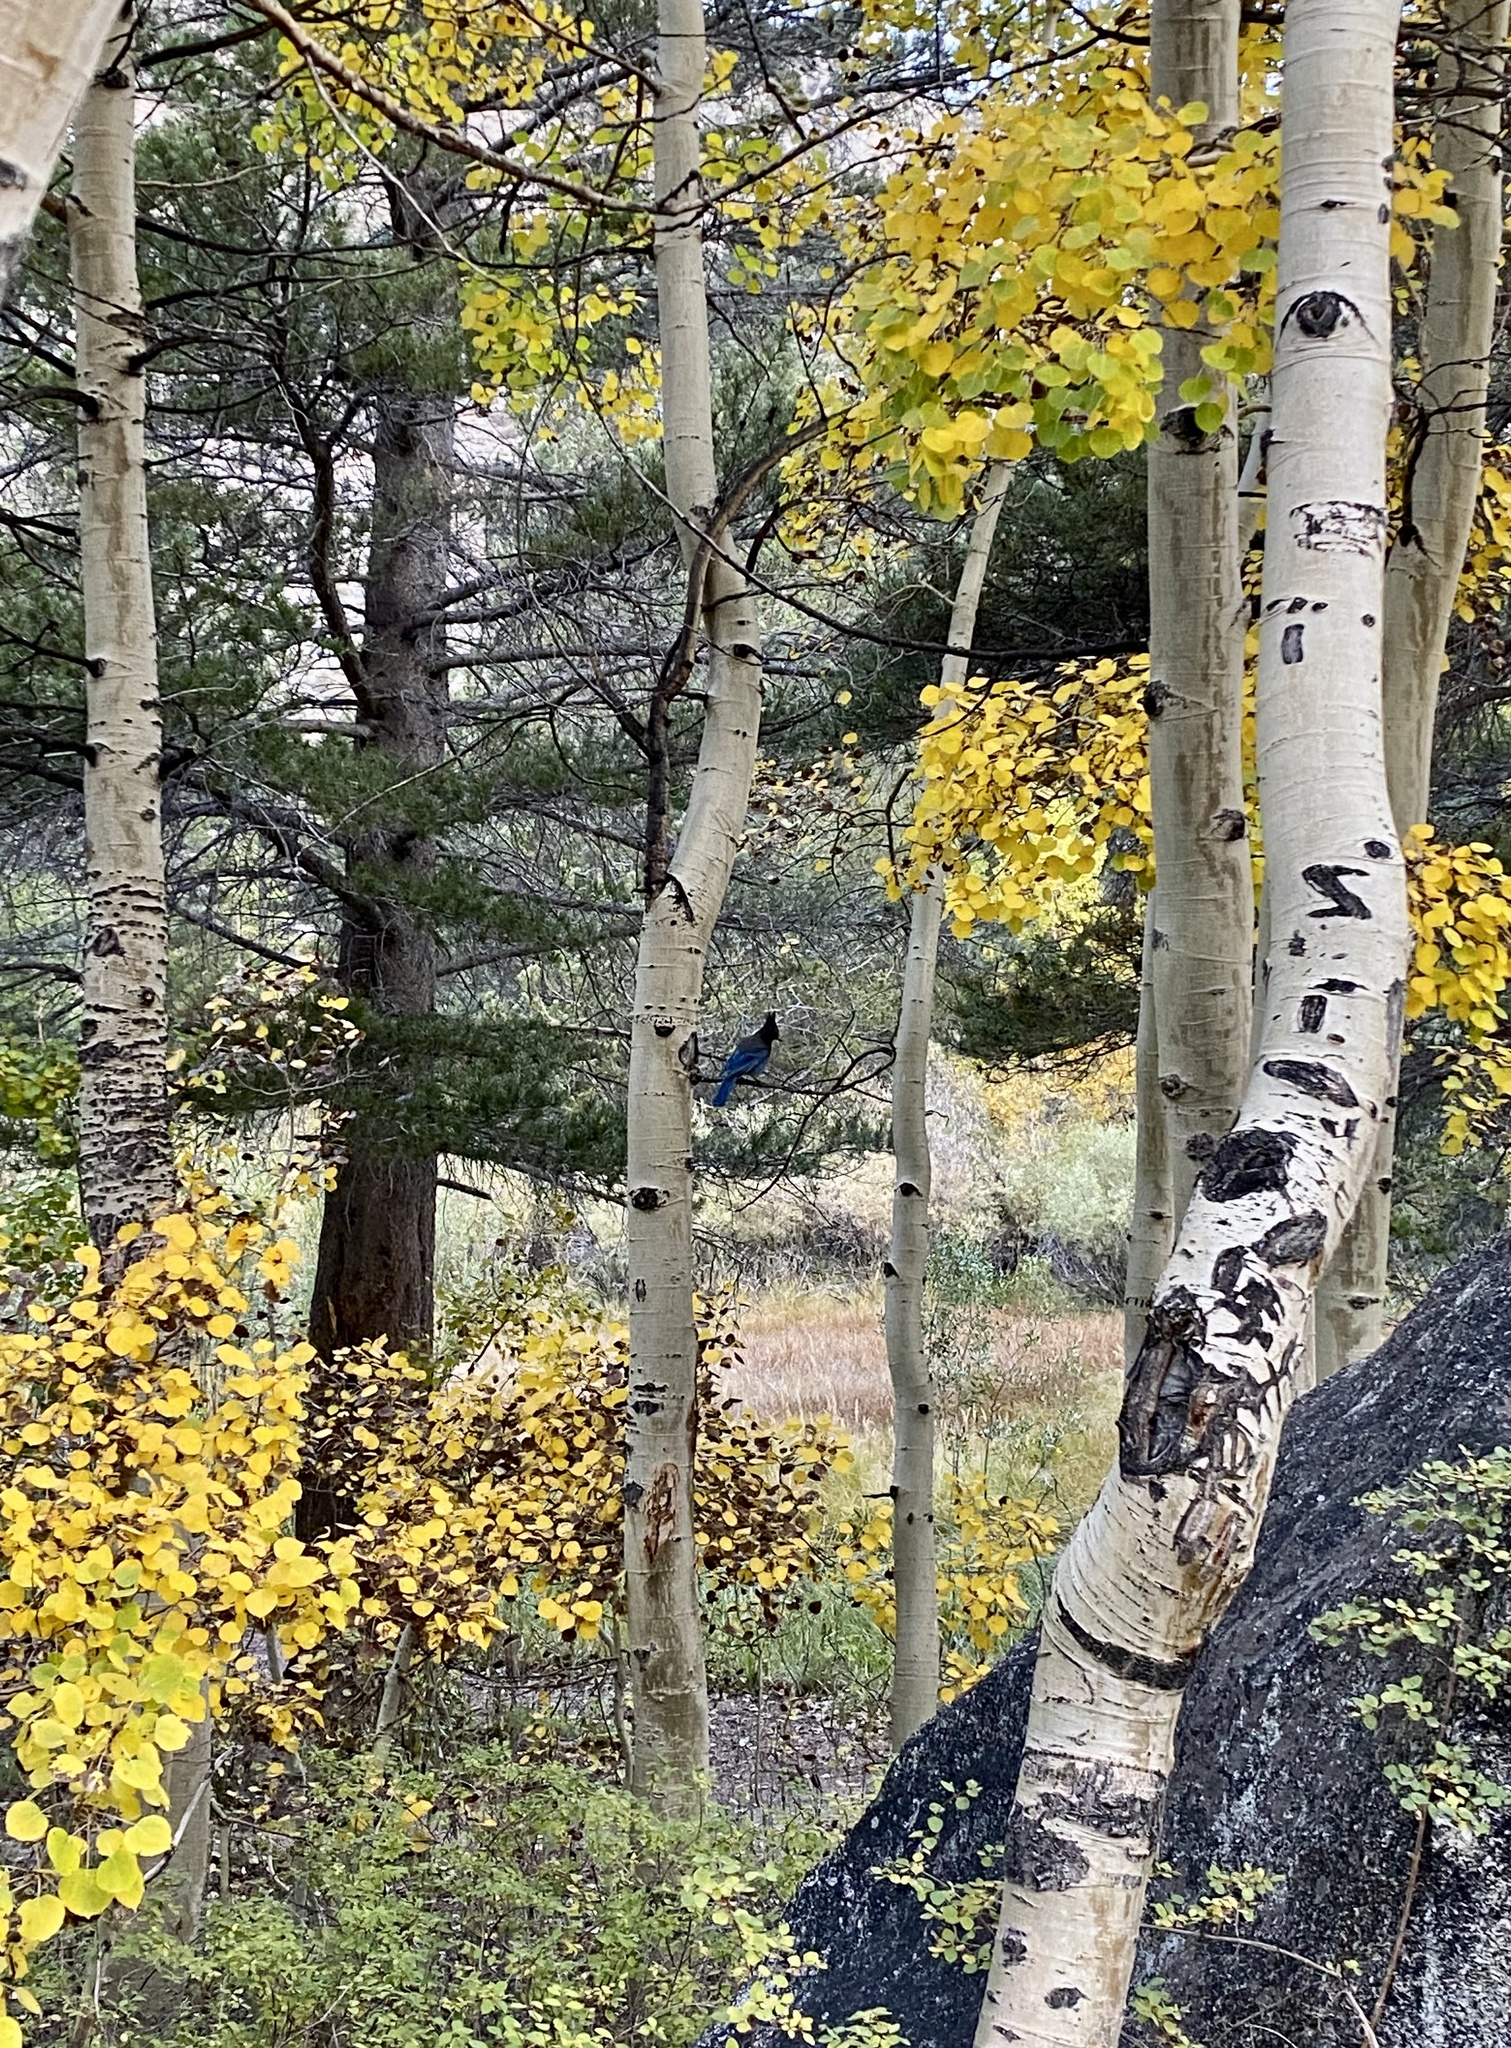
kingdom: Animalia
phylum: Chordata
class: Aves
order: Passeriformes
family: Corvidae
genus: Cyanocitta
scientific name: Cyanocitta stelleri
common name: Steller's jay
